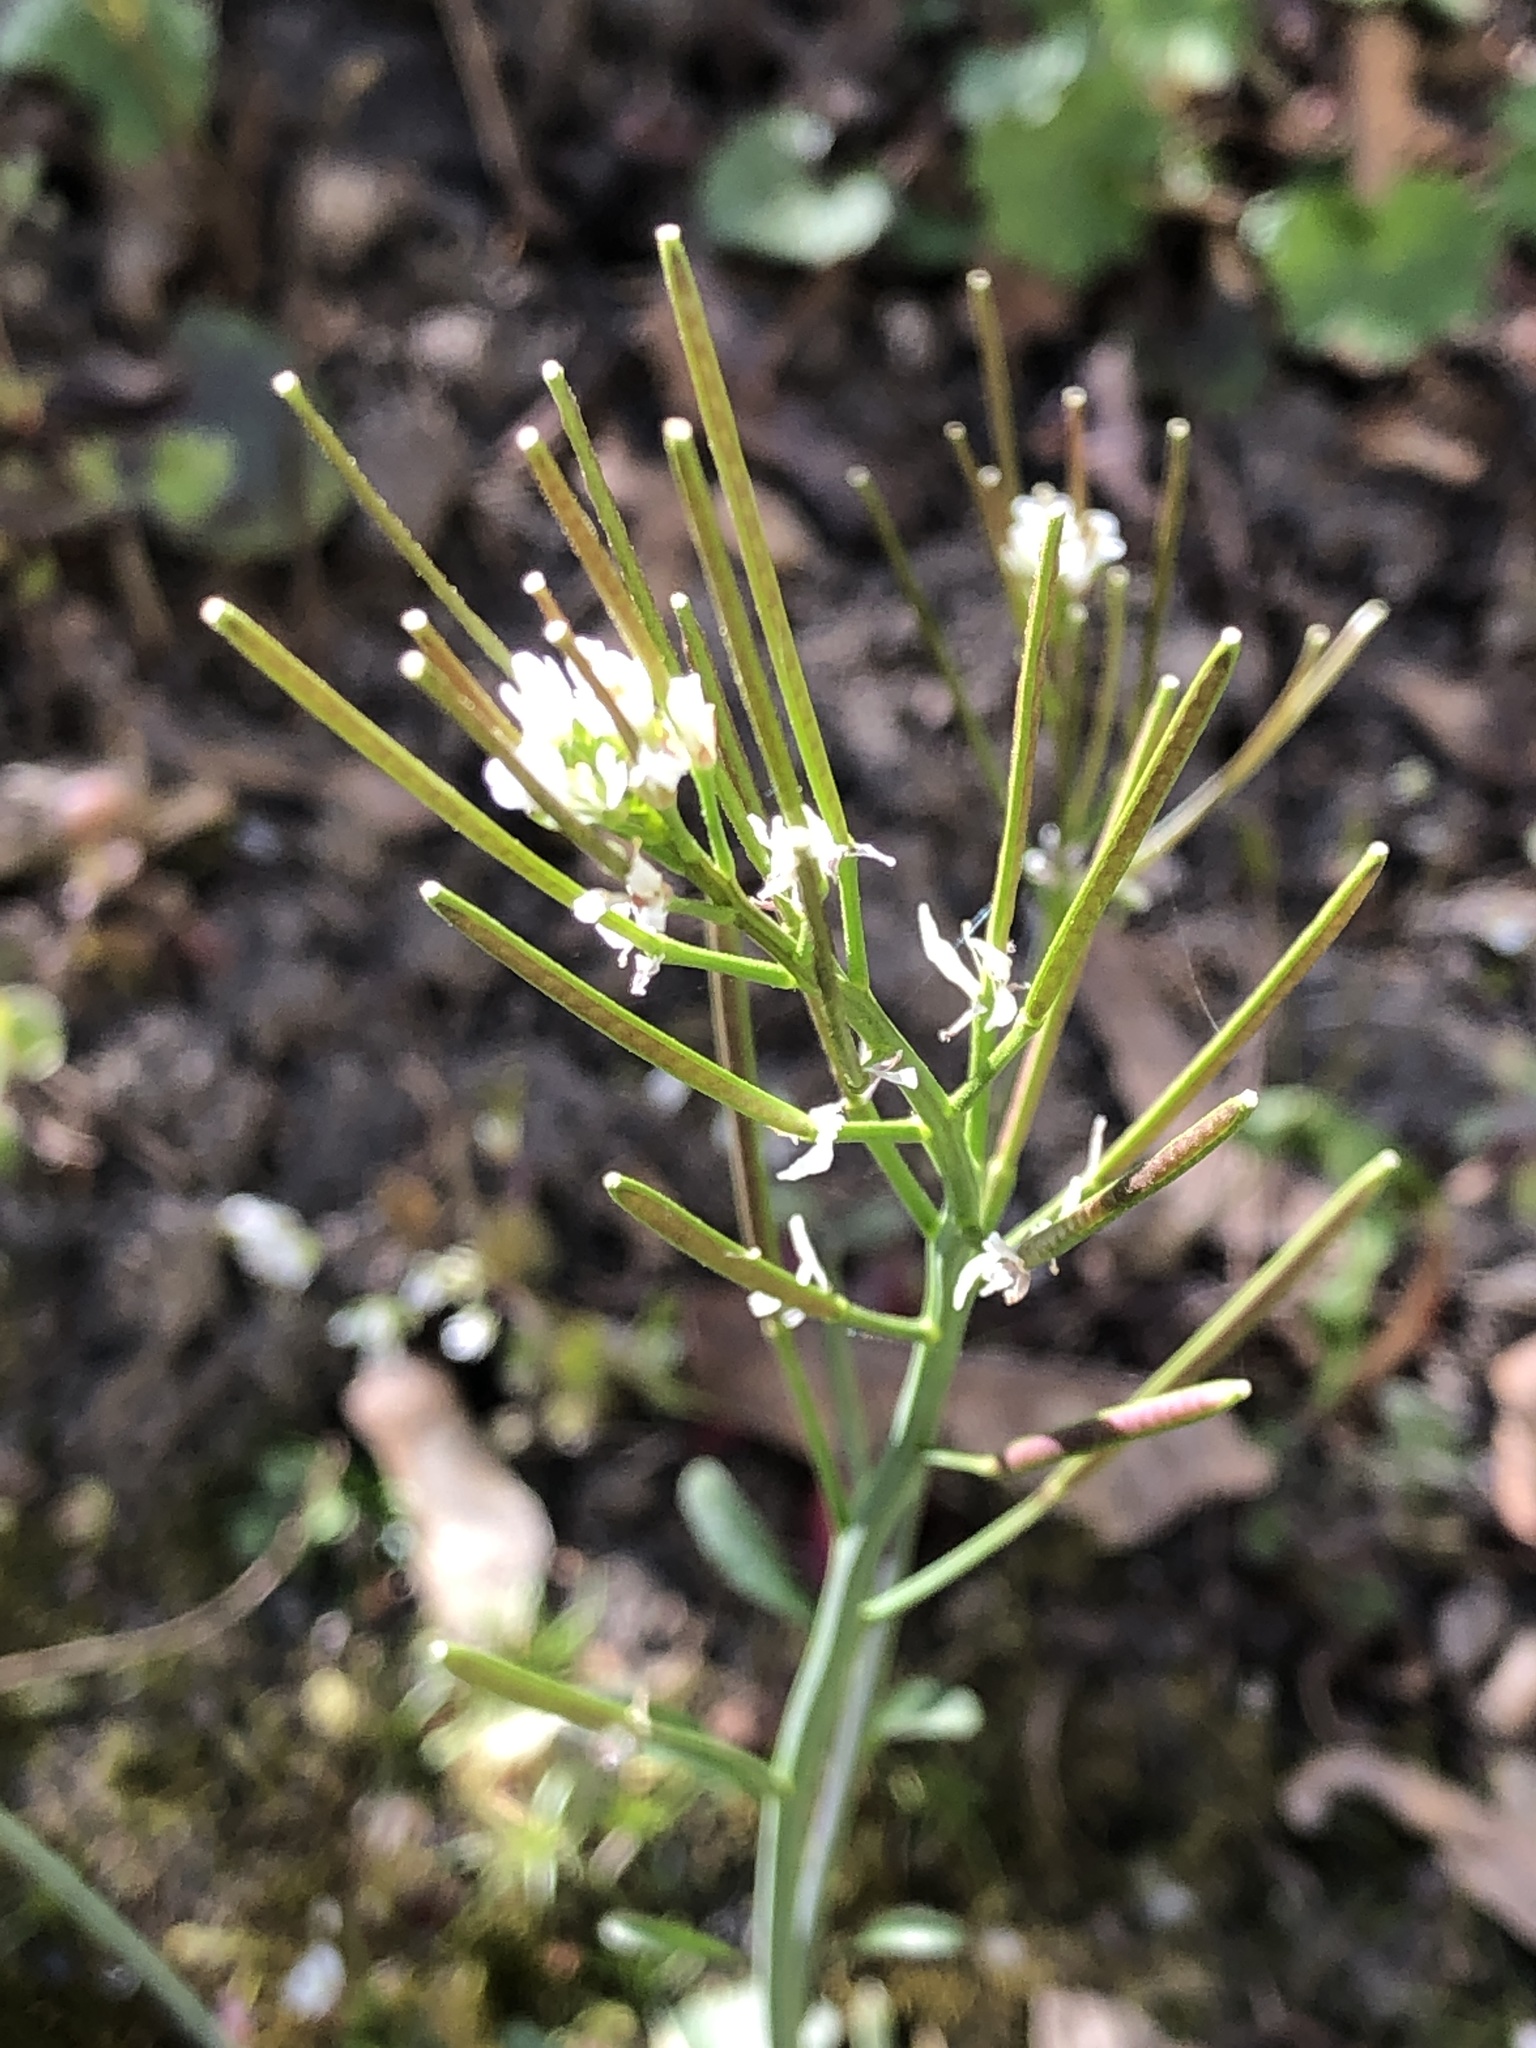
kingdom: Plantae
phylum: Tracheophyta
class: Magnoliopsida
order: Brassicales
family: Brassicaceae
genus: Cardamine
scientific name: Cardamine hirsuta
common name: Hairy bittercress
